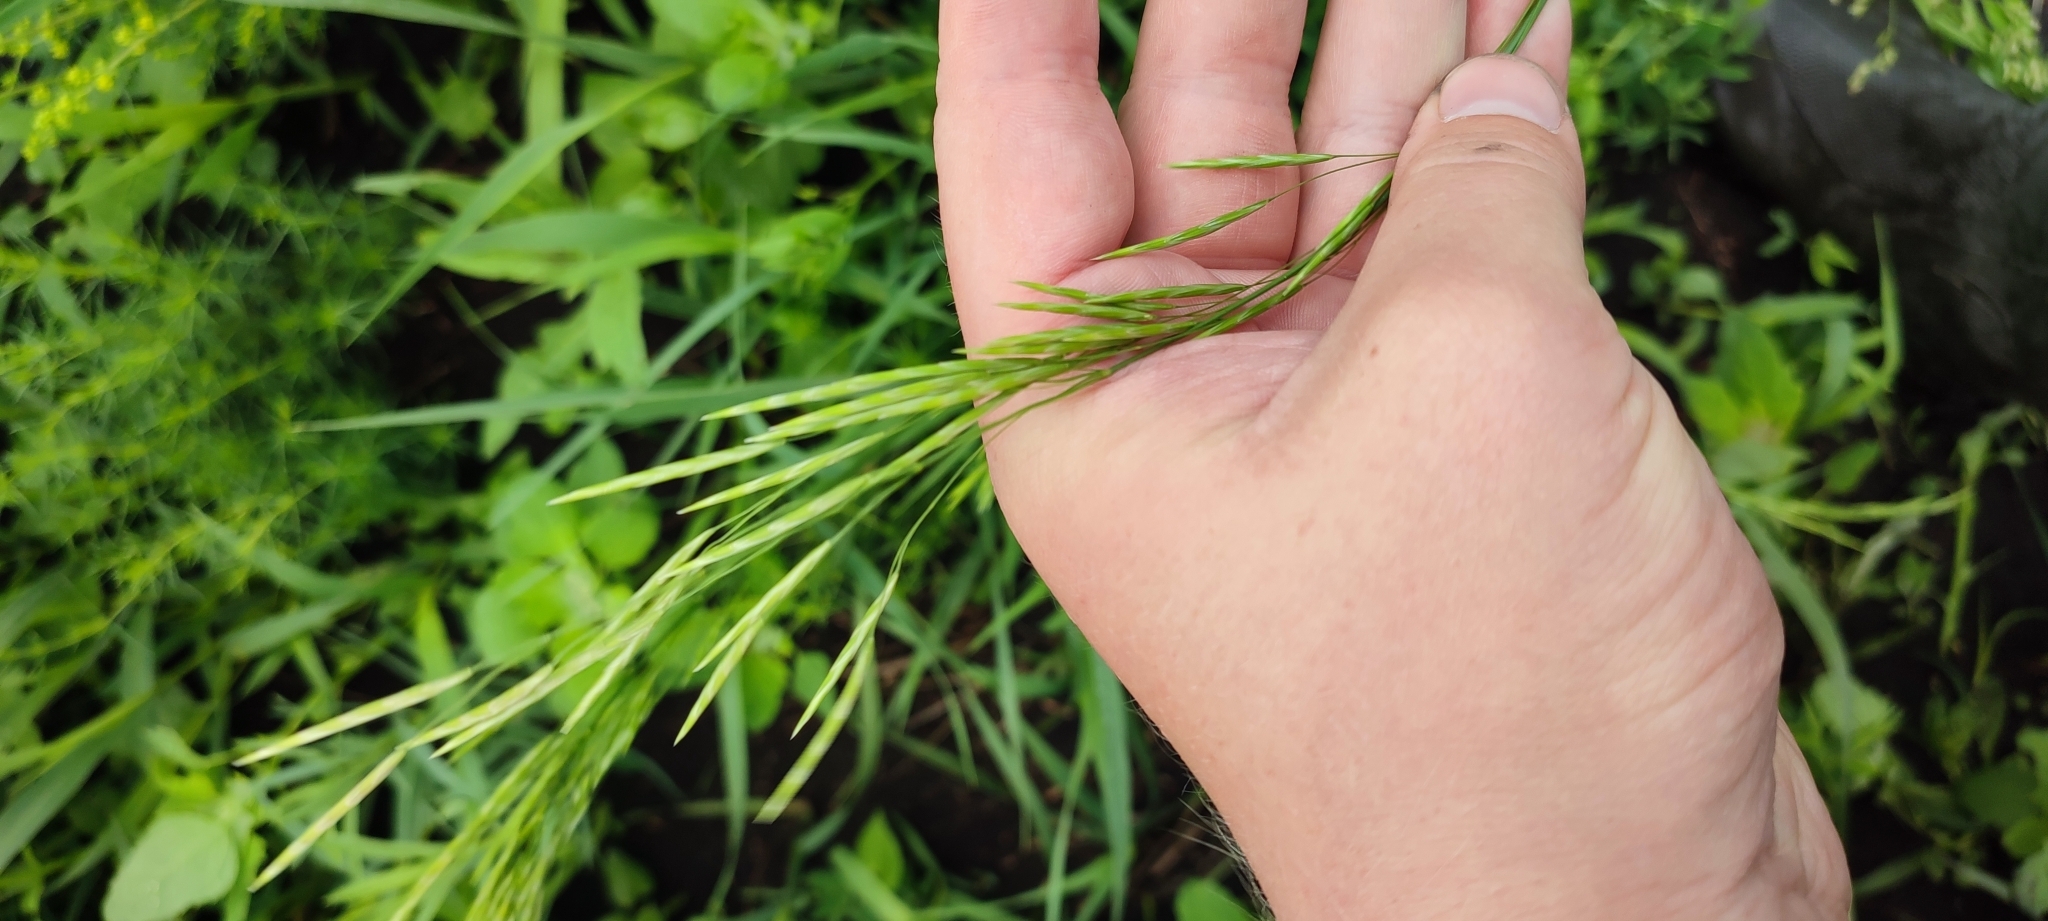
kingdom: Plantae
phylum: Tracheophyta
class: Liliopsida
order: Poales
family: Poaceae
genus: Bromus
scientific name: Bromus inermis
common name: Smooth brome
